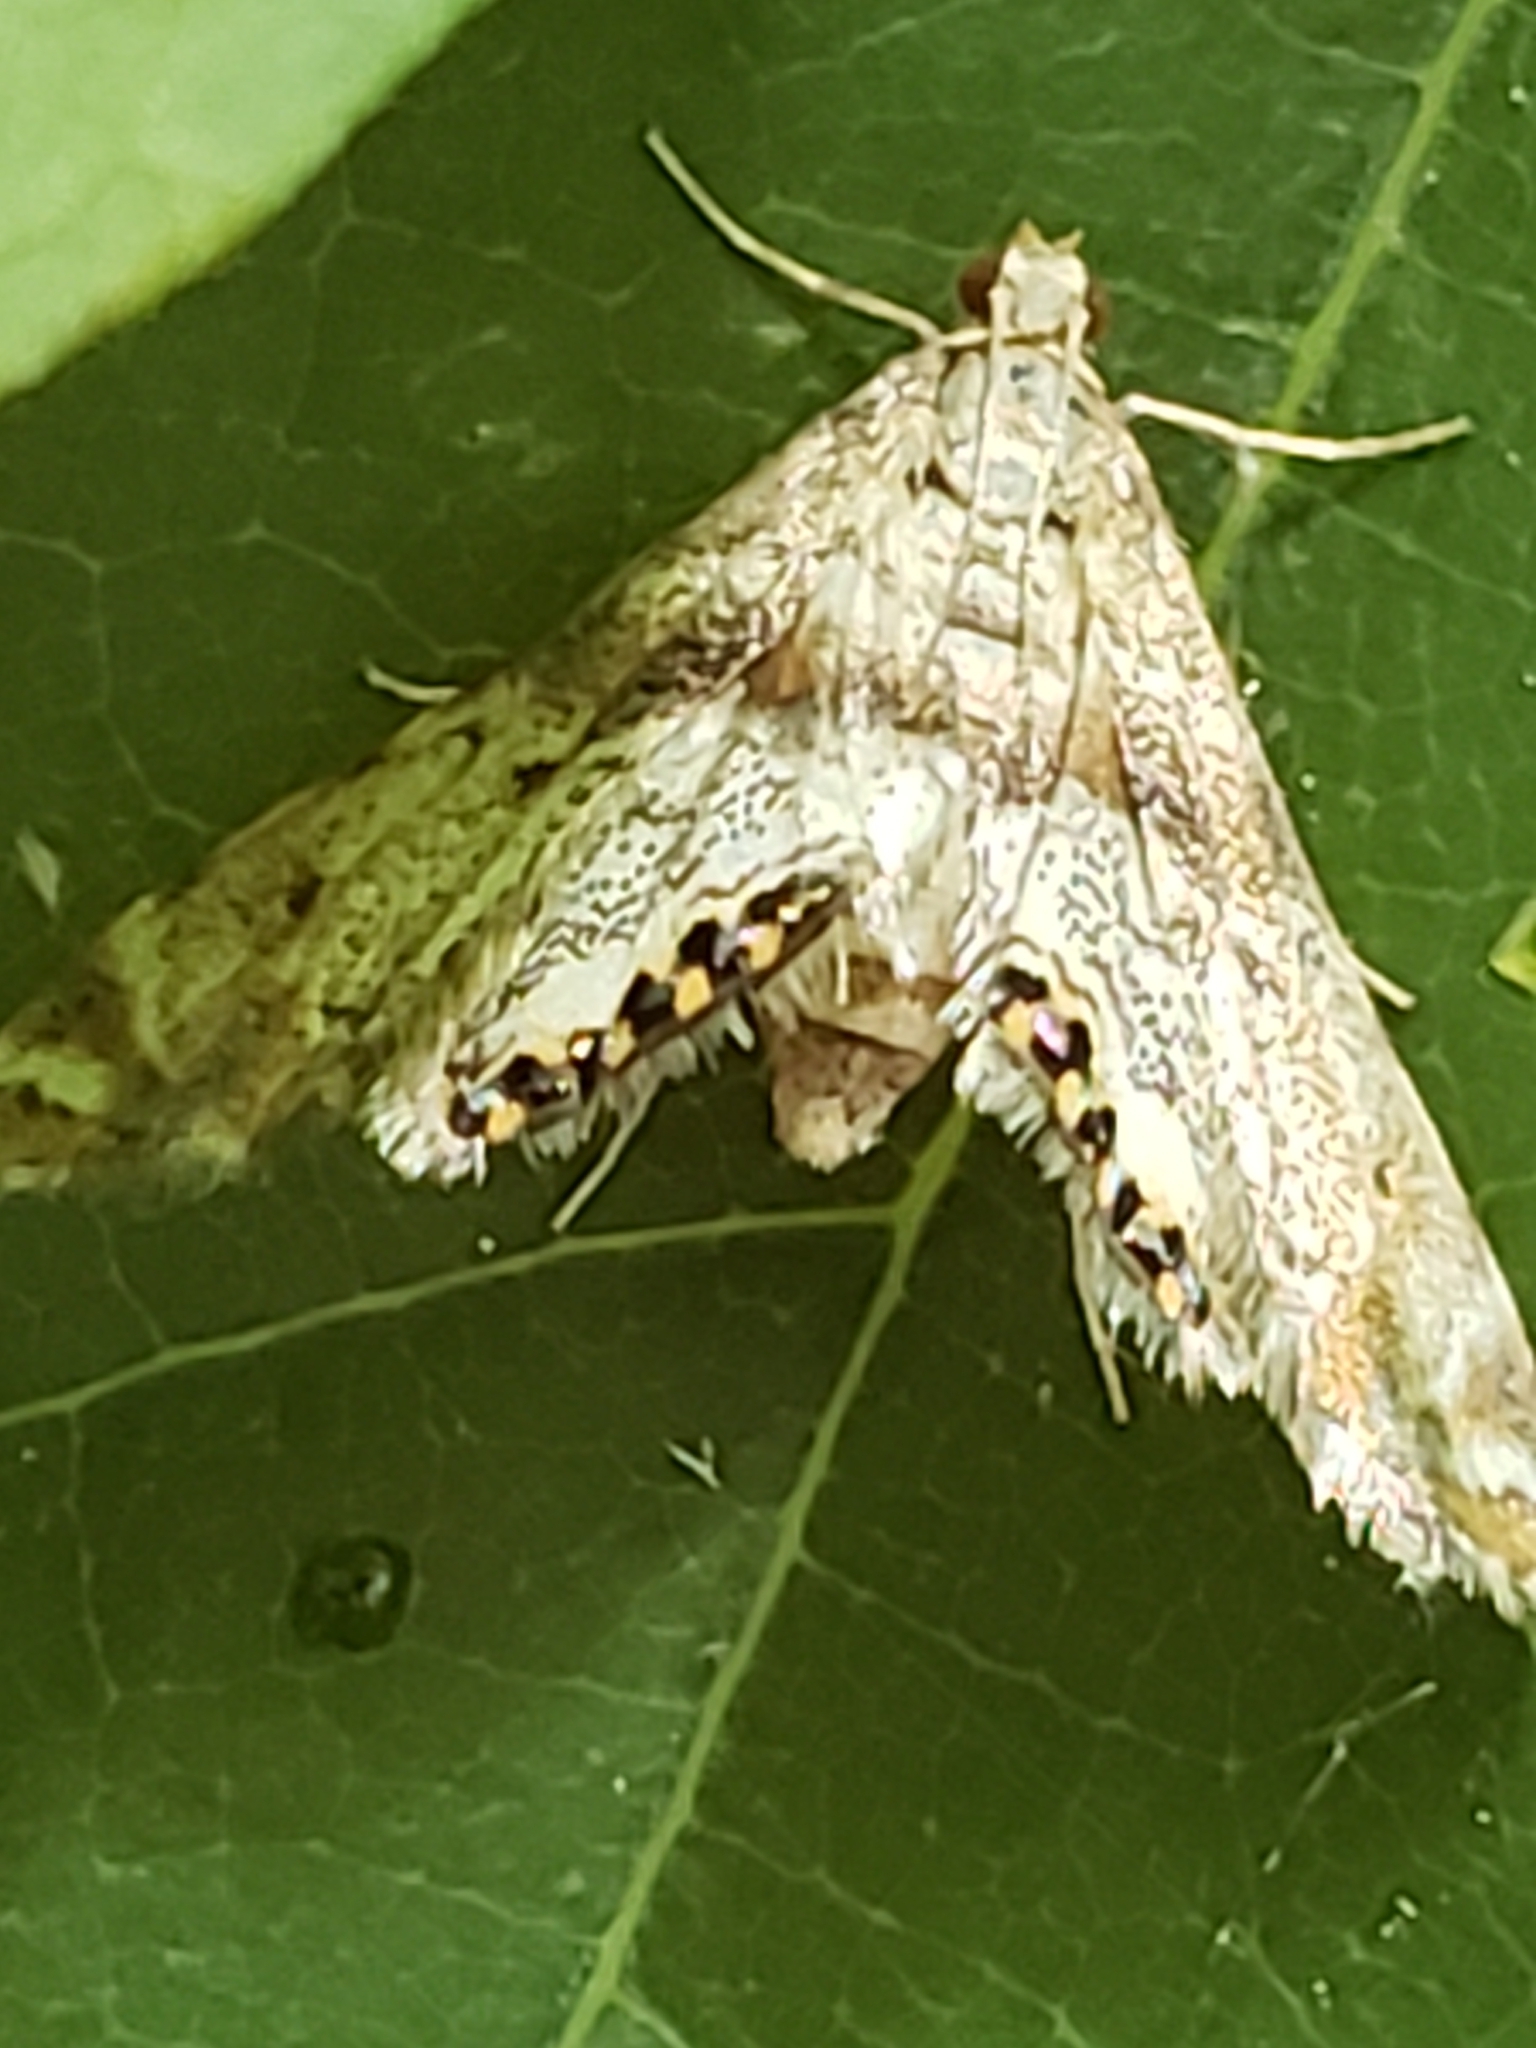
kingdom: Animalia
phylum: Arthropoda
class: Insecta
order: Lepidoptera
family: Crambidae
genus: Petrophila
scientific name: Petrophila fulicalis
